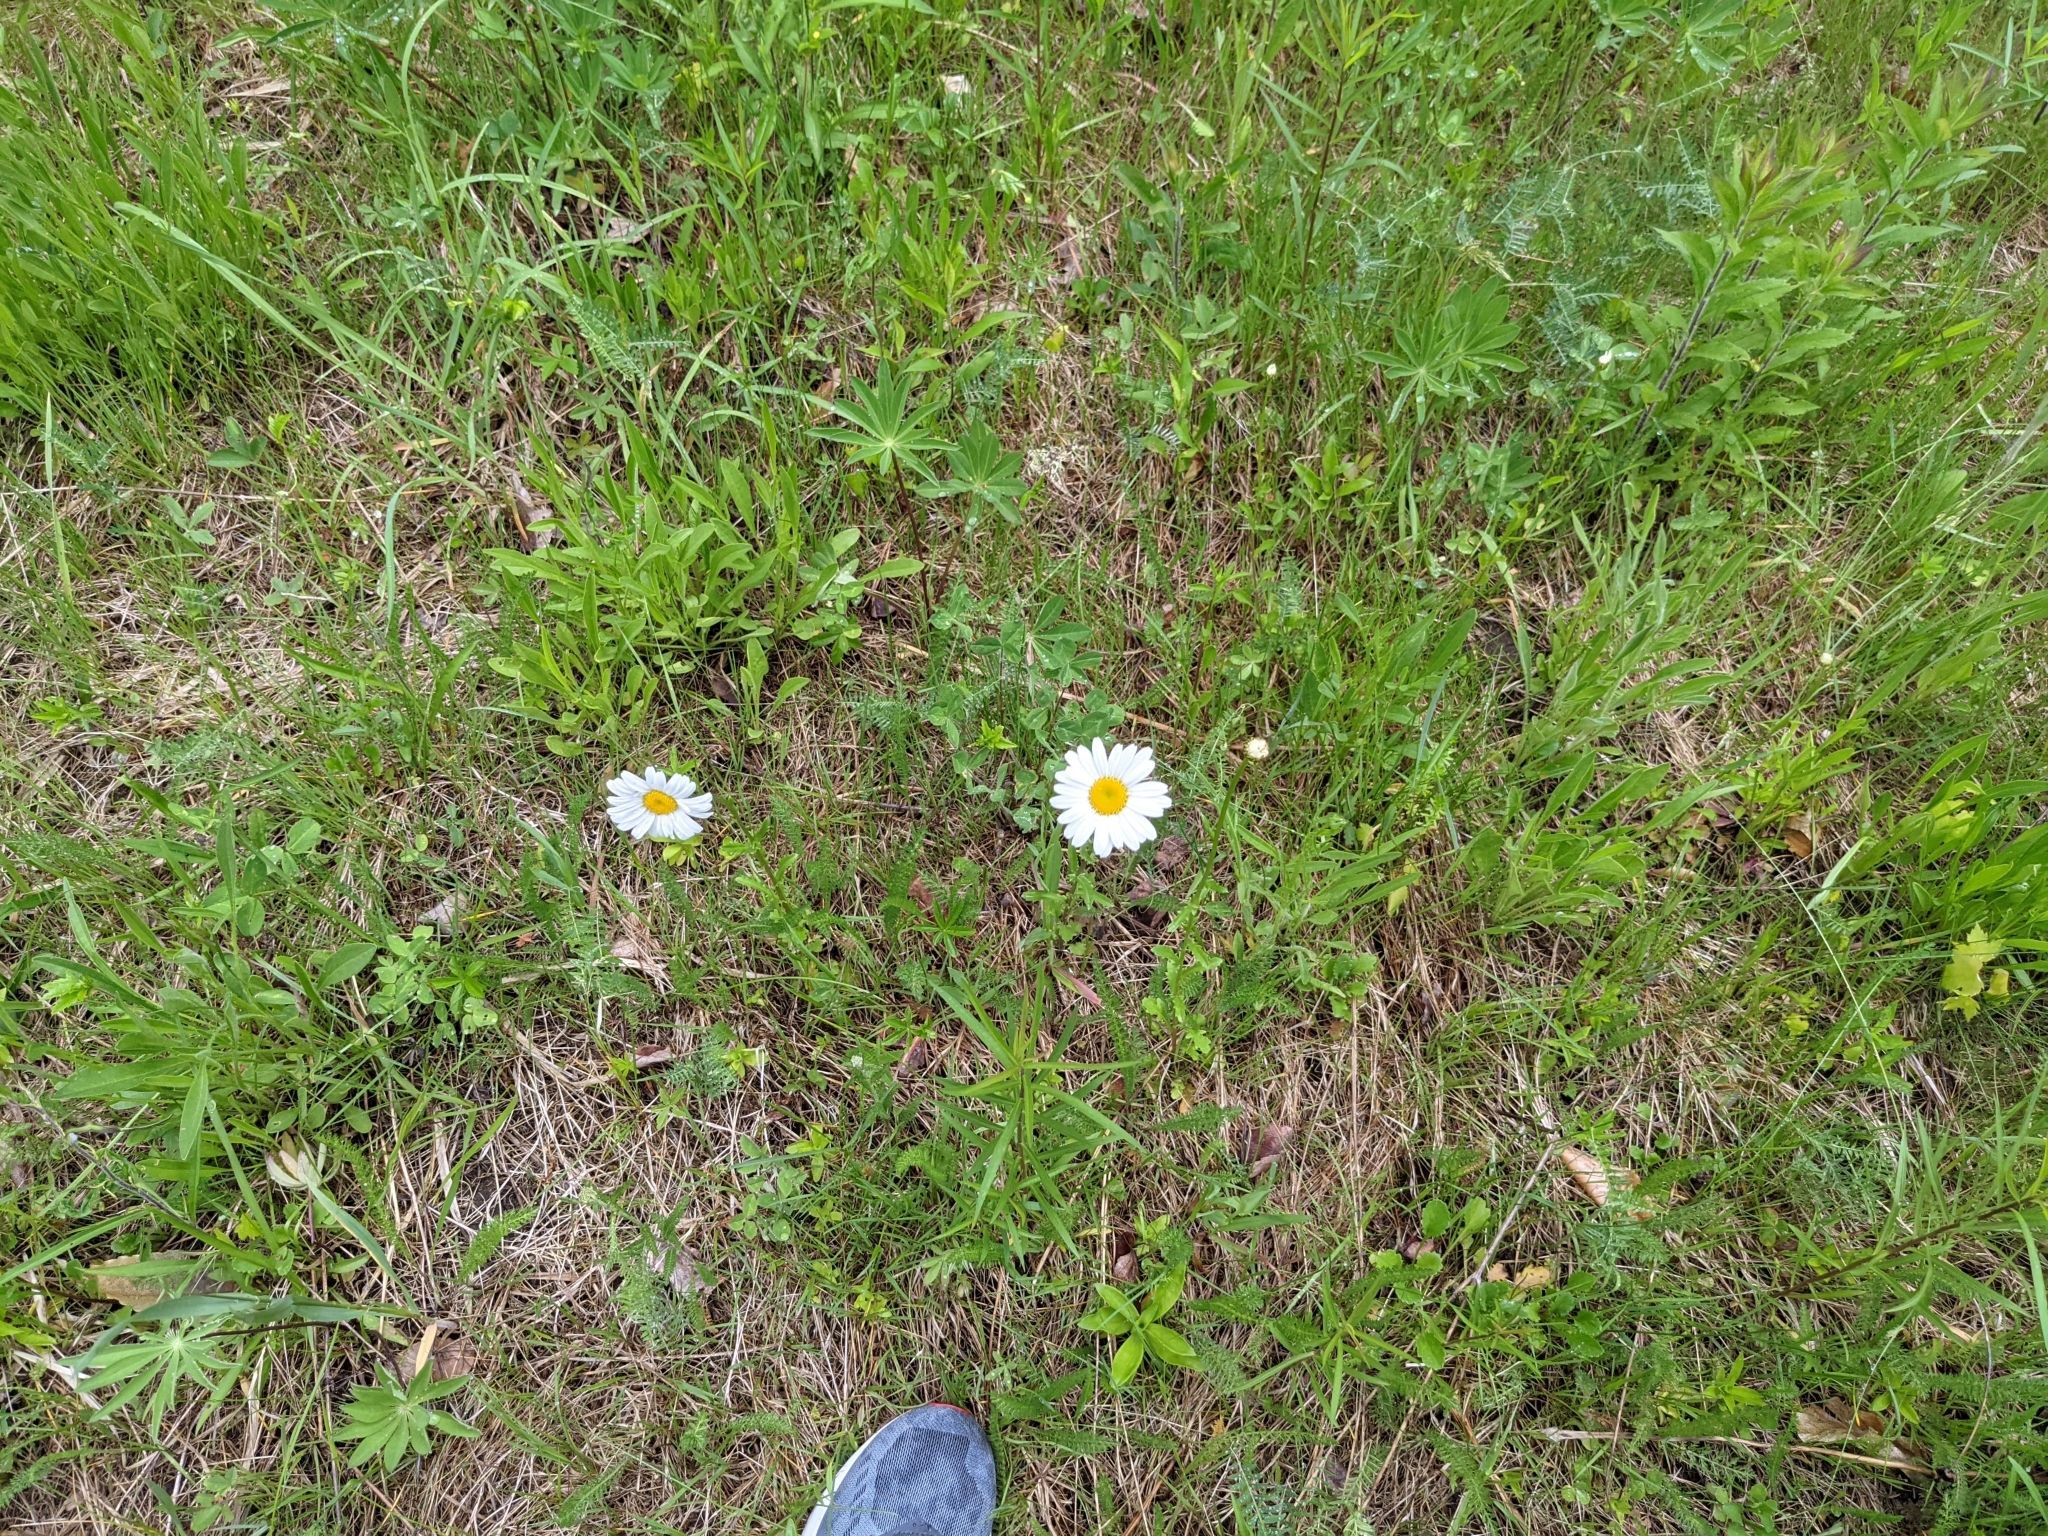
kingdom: Plantae
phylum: Tracheophyta
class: Magnoliopsida
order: Asterales
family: Asteraceae
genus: Leucanthemum
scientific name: Leucanthemum vulgare
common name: Oxeye daisy
